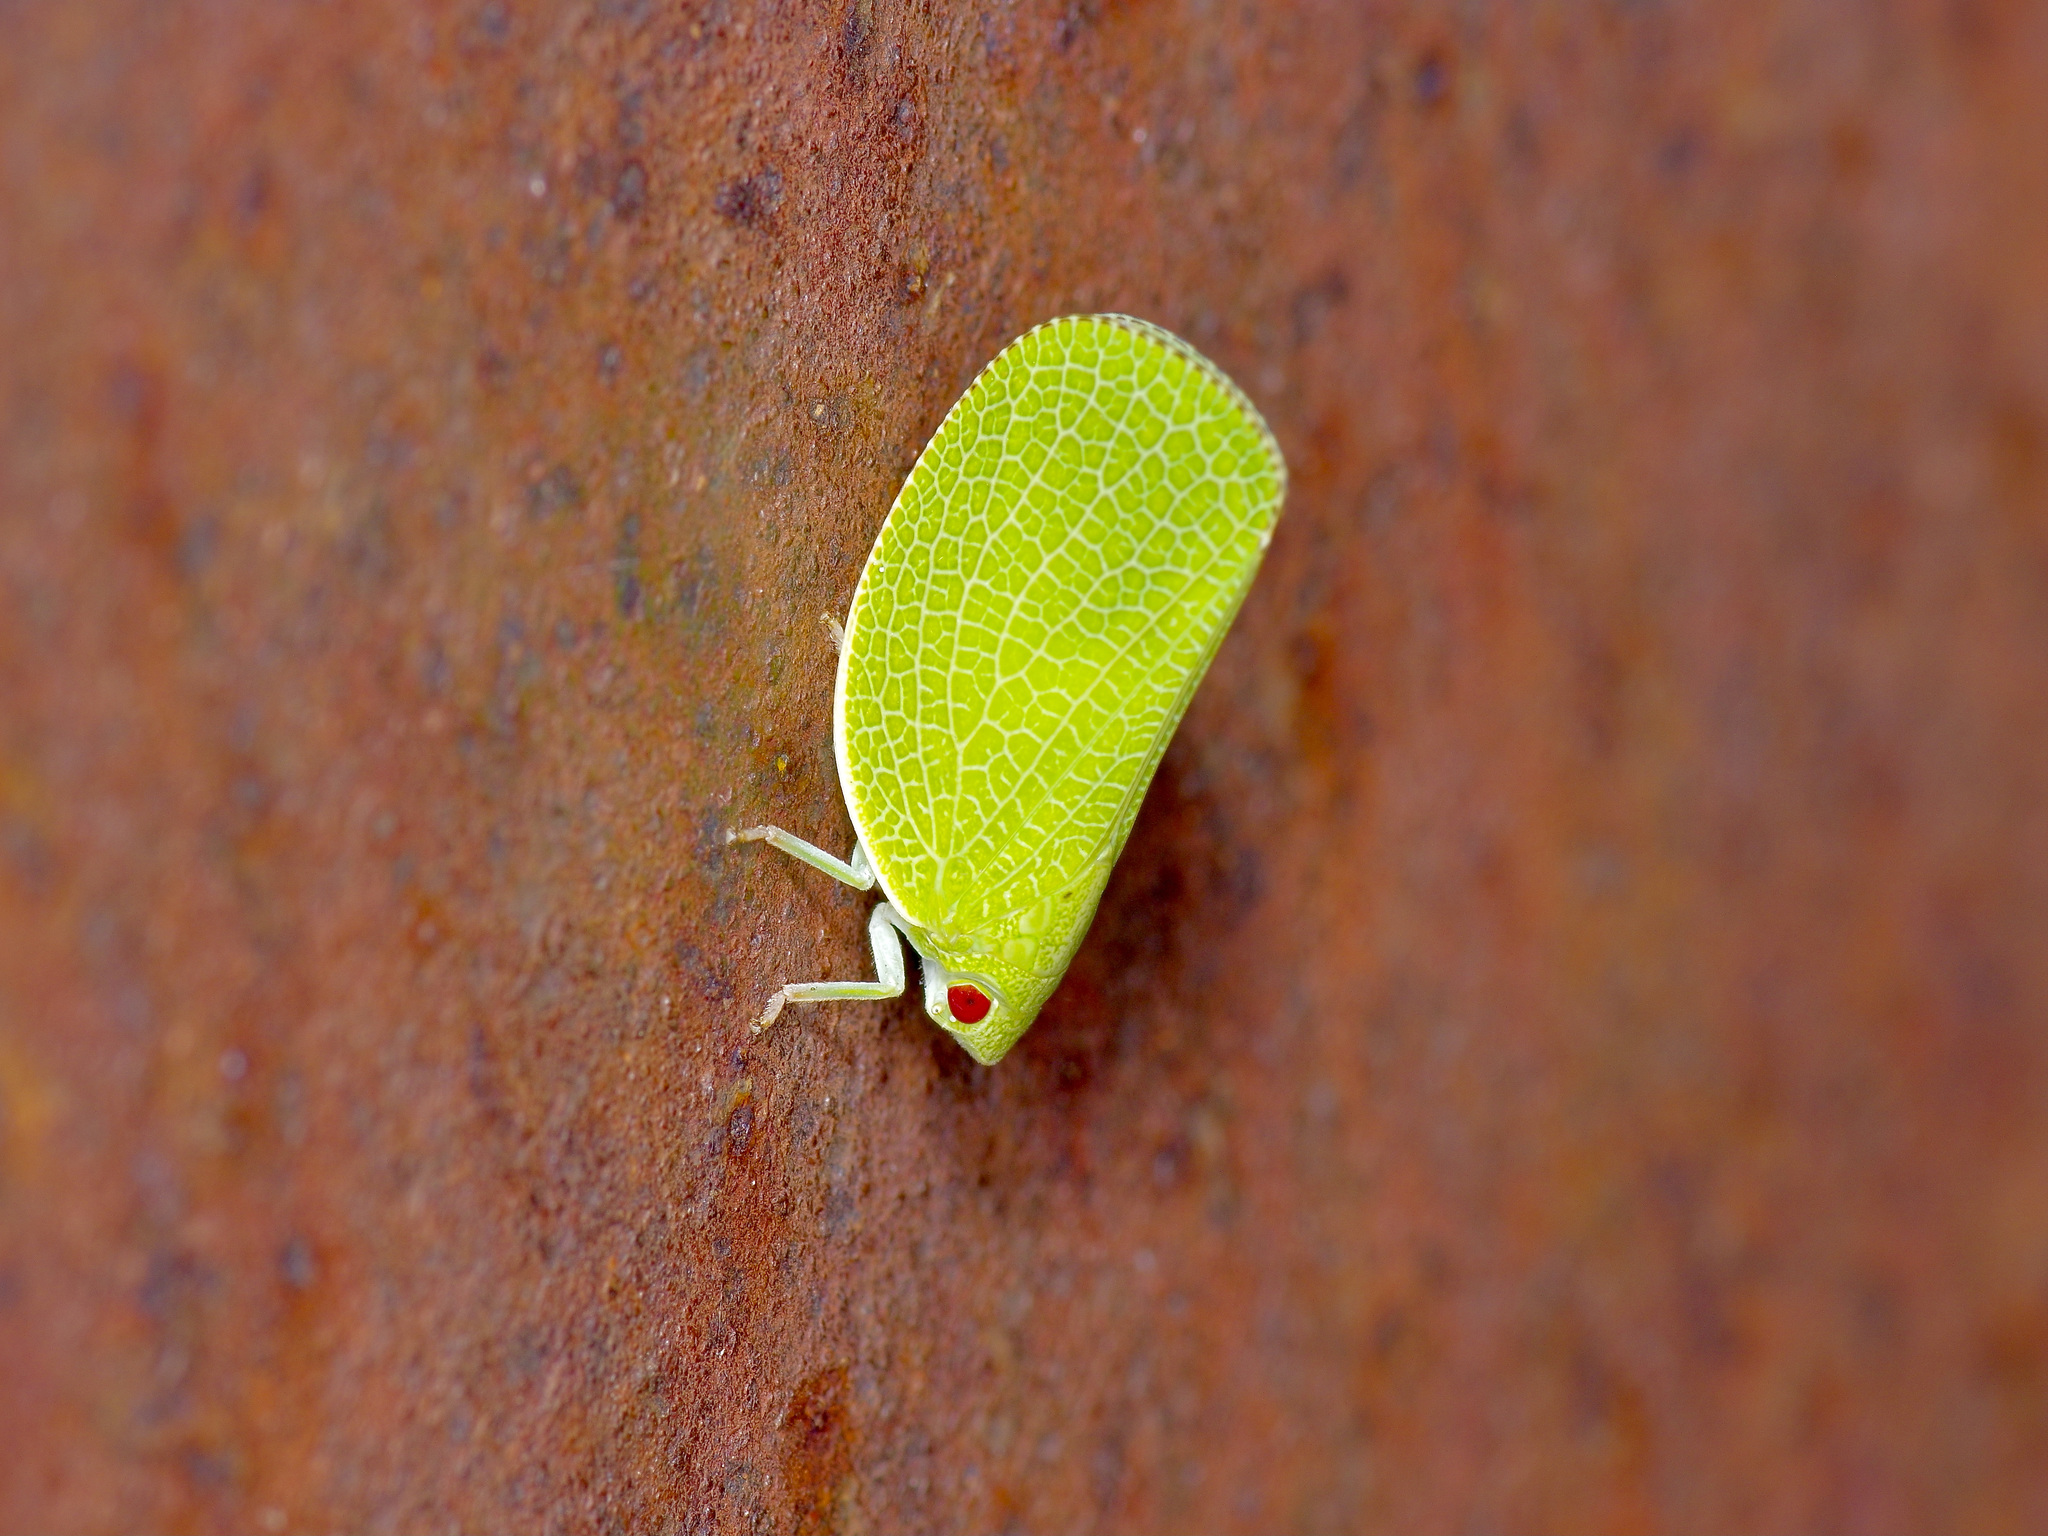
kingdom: Animalia
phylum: Arthropoda
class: Insecta
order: Hemiptera
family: Acanaloniidae
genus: Acanalonia
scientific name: Acanalonia conica
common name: Green cone-headed planthopper
